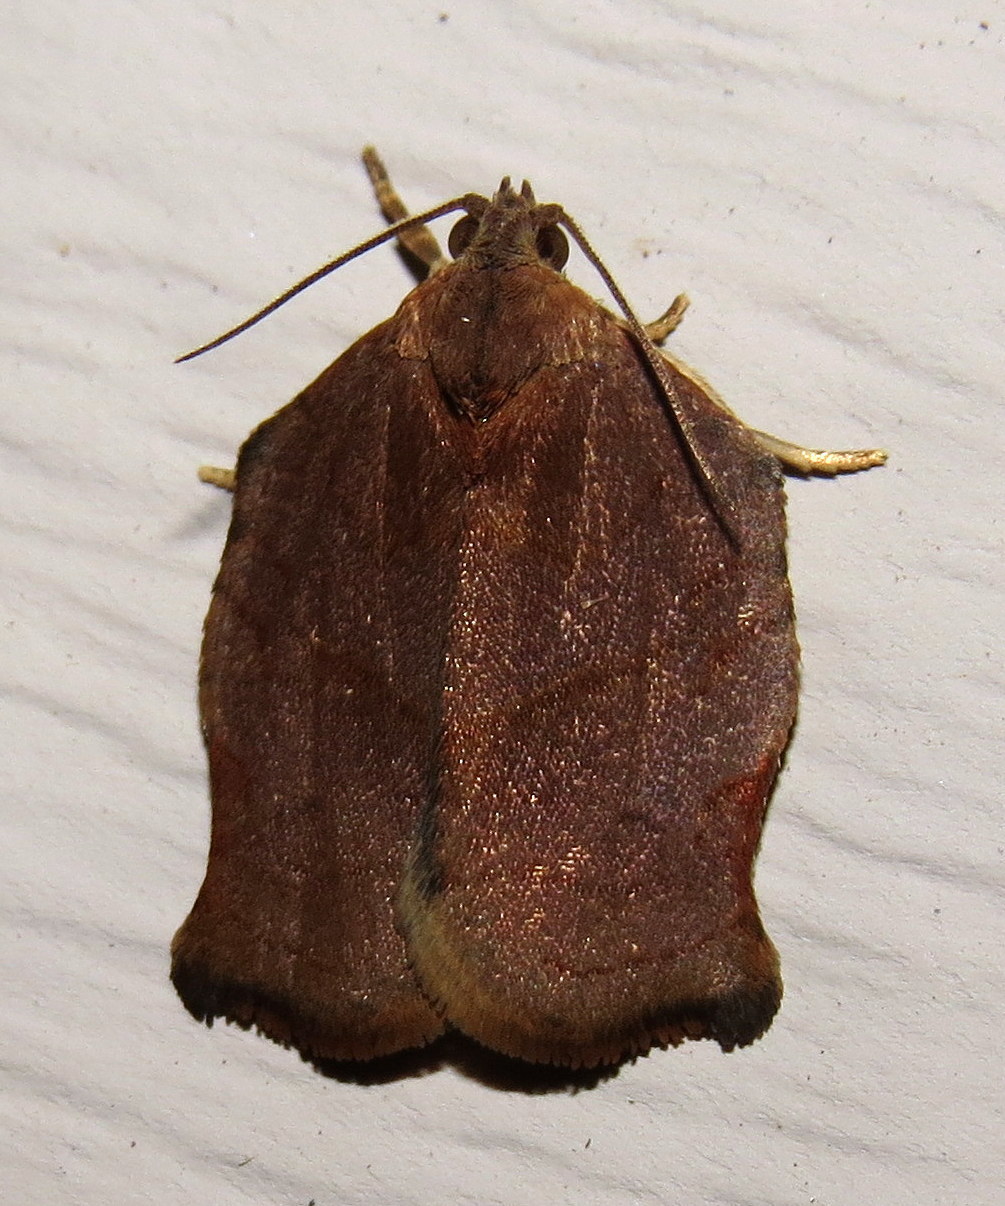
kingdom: Animalia
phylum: Arthropoda
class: Insecta
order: Lepidoptera
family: Tortricidae
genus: Archips
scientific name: Archips purpurana
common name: Omnivorous leafroller
